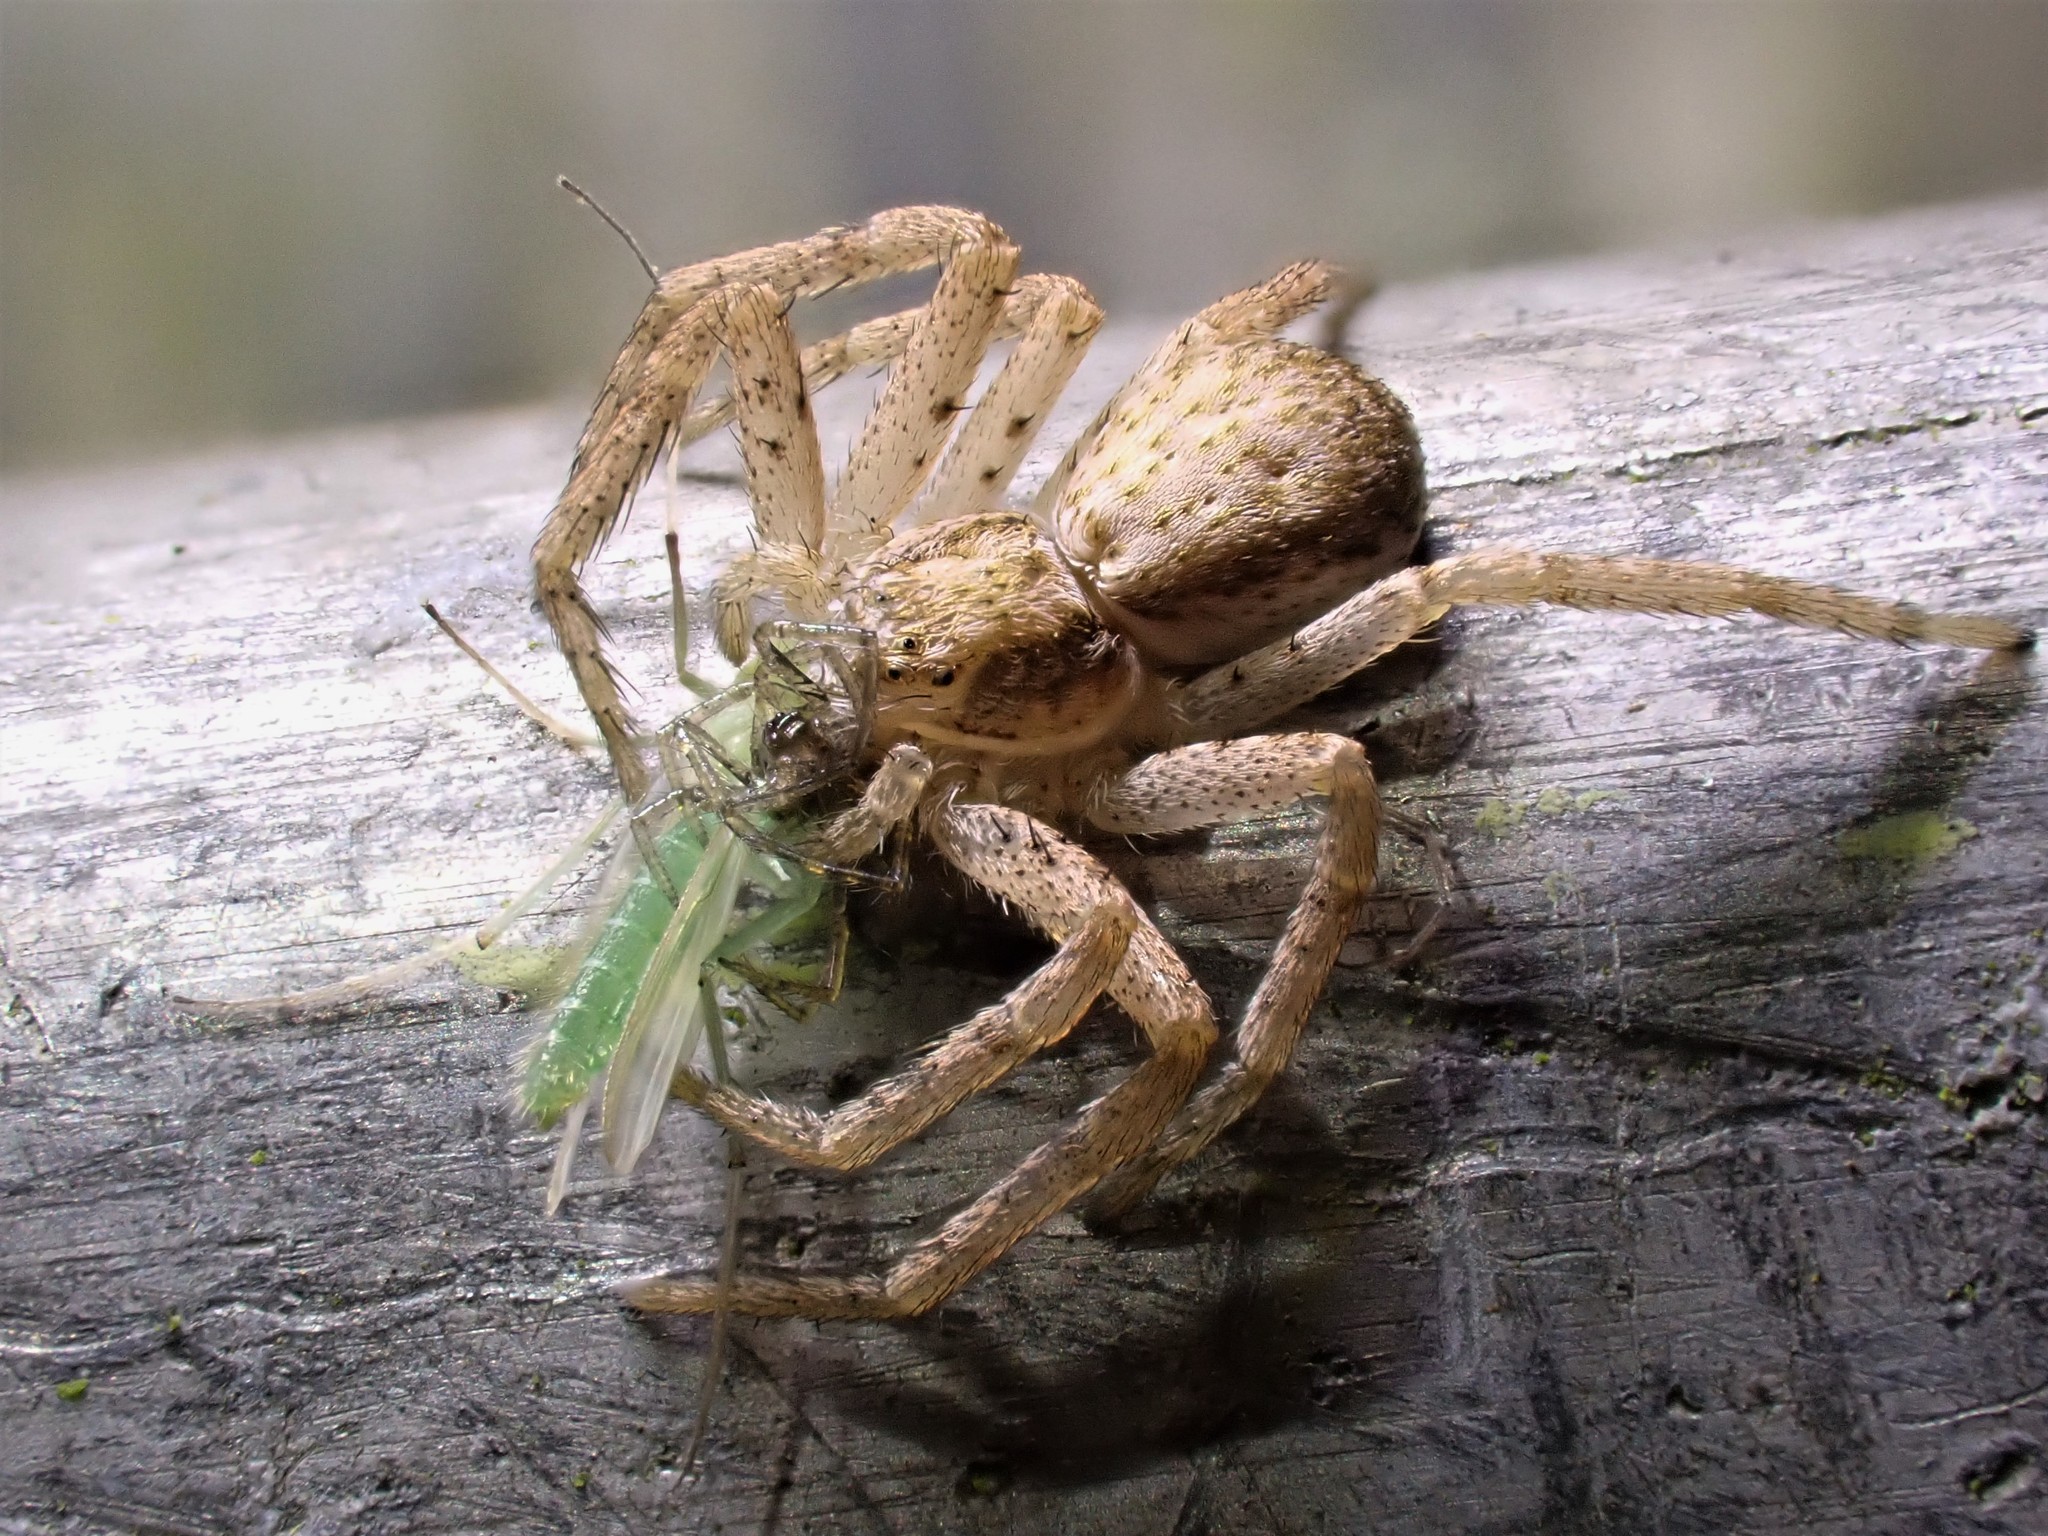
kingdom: Animalia
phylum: Arthropoda
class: Arachnida
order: Araneae
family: Philodromidae
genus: Philodromus
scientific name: Philodromus dispar
